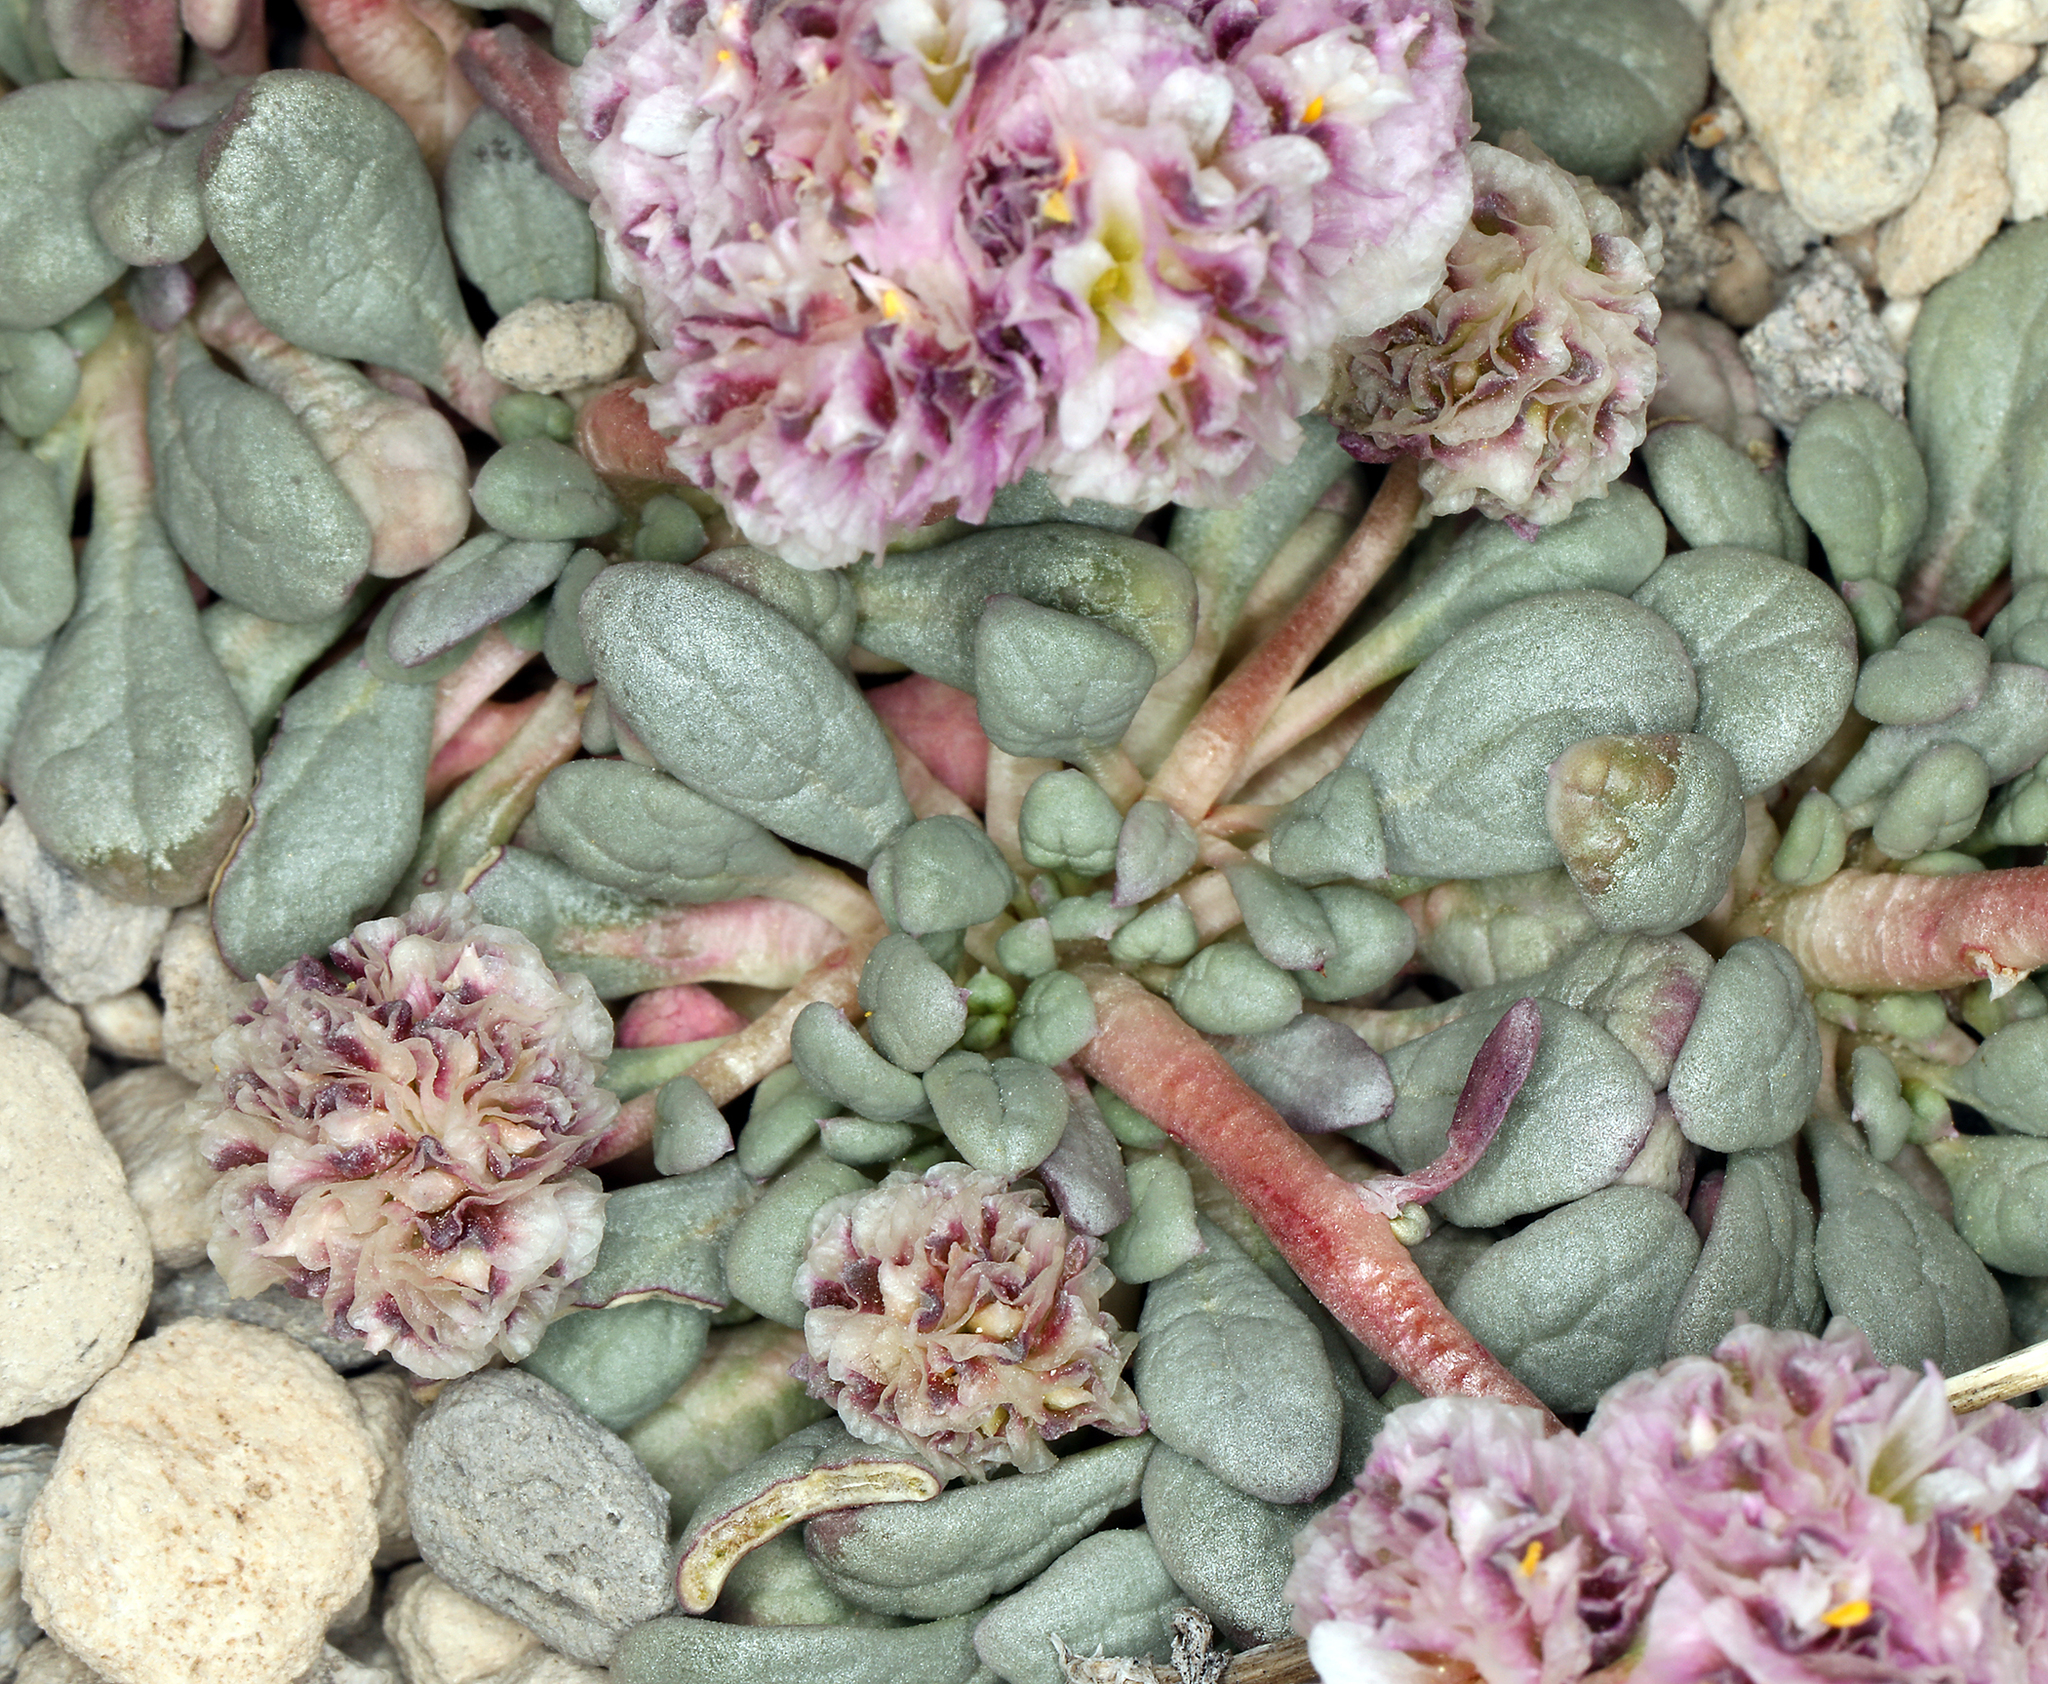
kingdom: Plantae
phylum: Tracheophyta
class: Magnoliopsida
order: Caryophyllales
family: Montiaceae
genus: Calyptridium
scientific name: Calyptridium umbellatum
